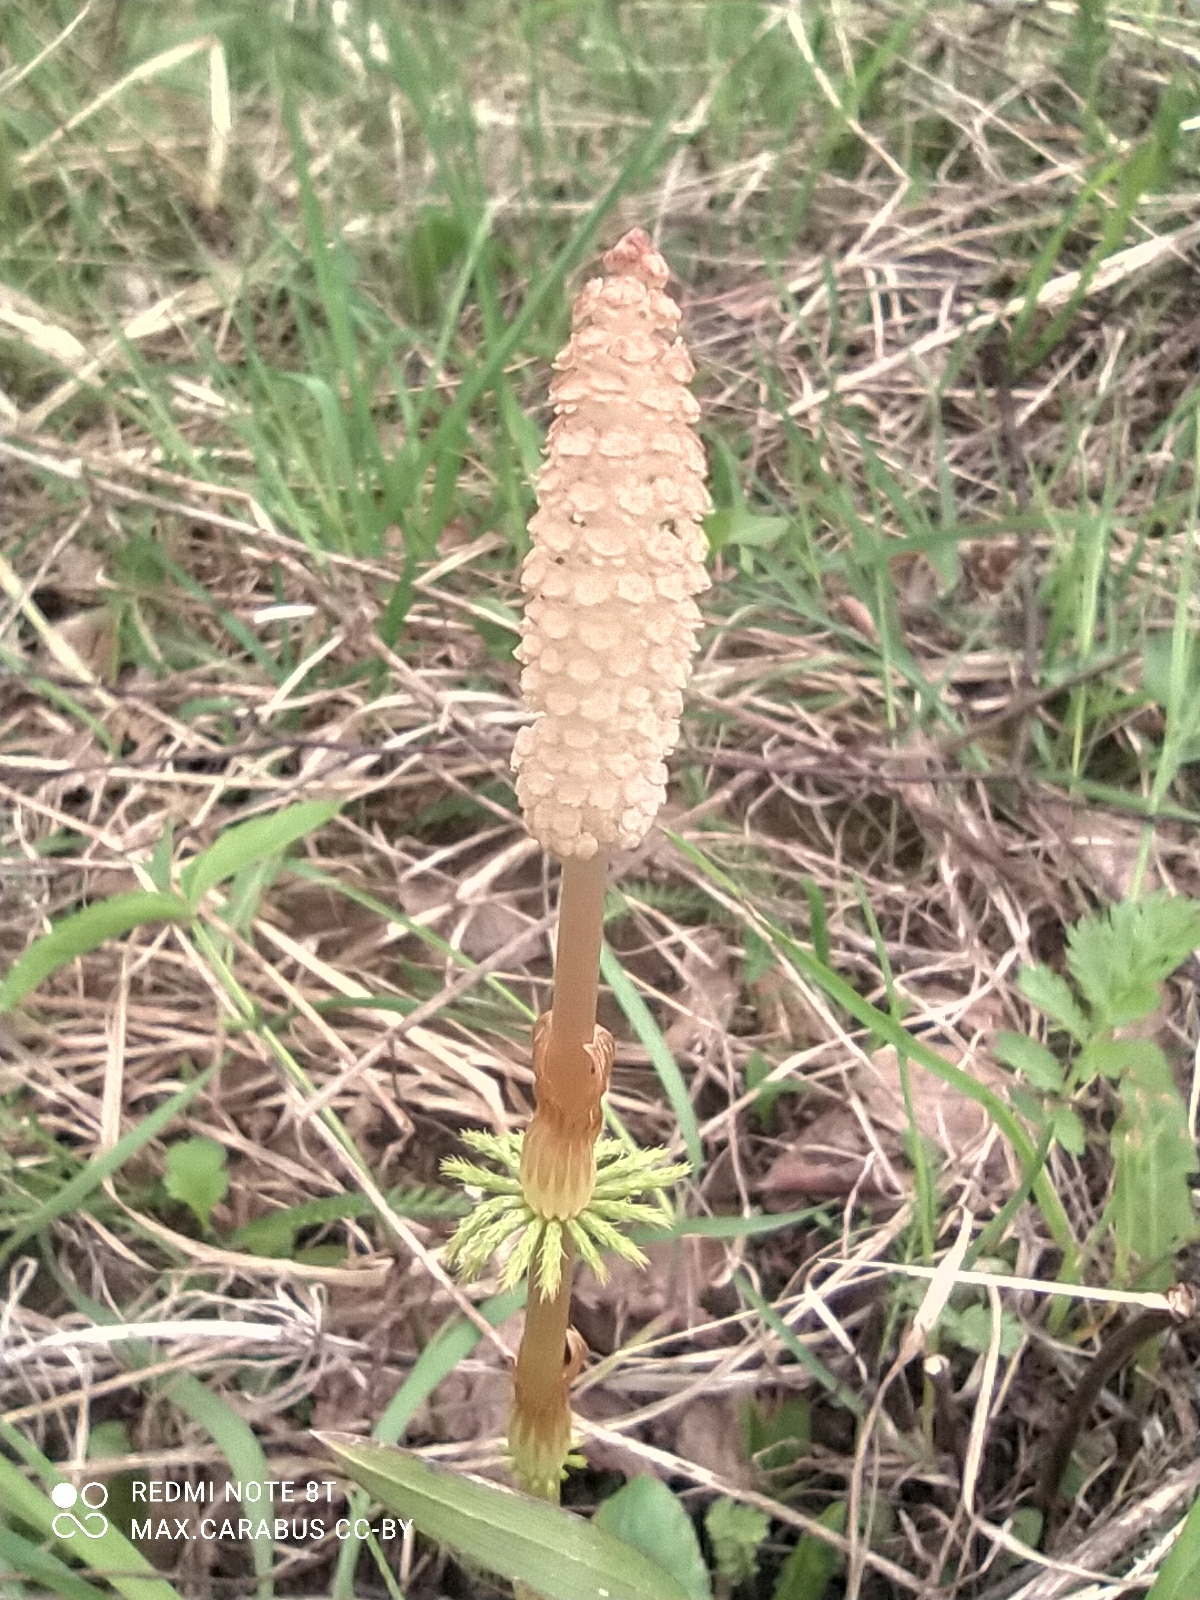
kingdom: Plantae
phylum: Tracheophyta
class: Polypodiopsida
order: Equisetales
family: Equisetaceae
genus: Equisetum
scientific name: Equisetum sylvaticum
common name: Wood horsetail
